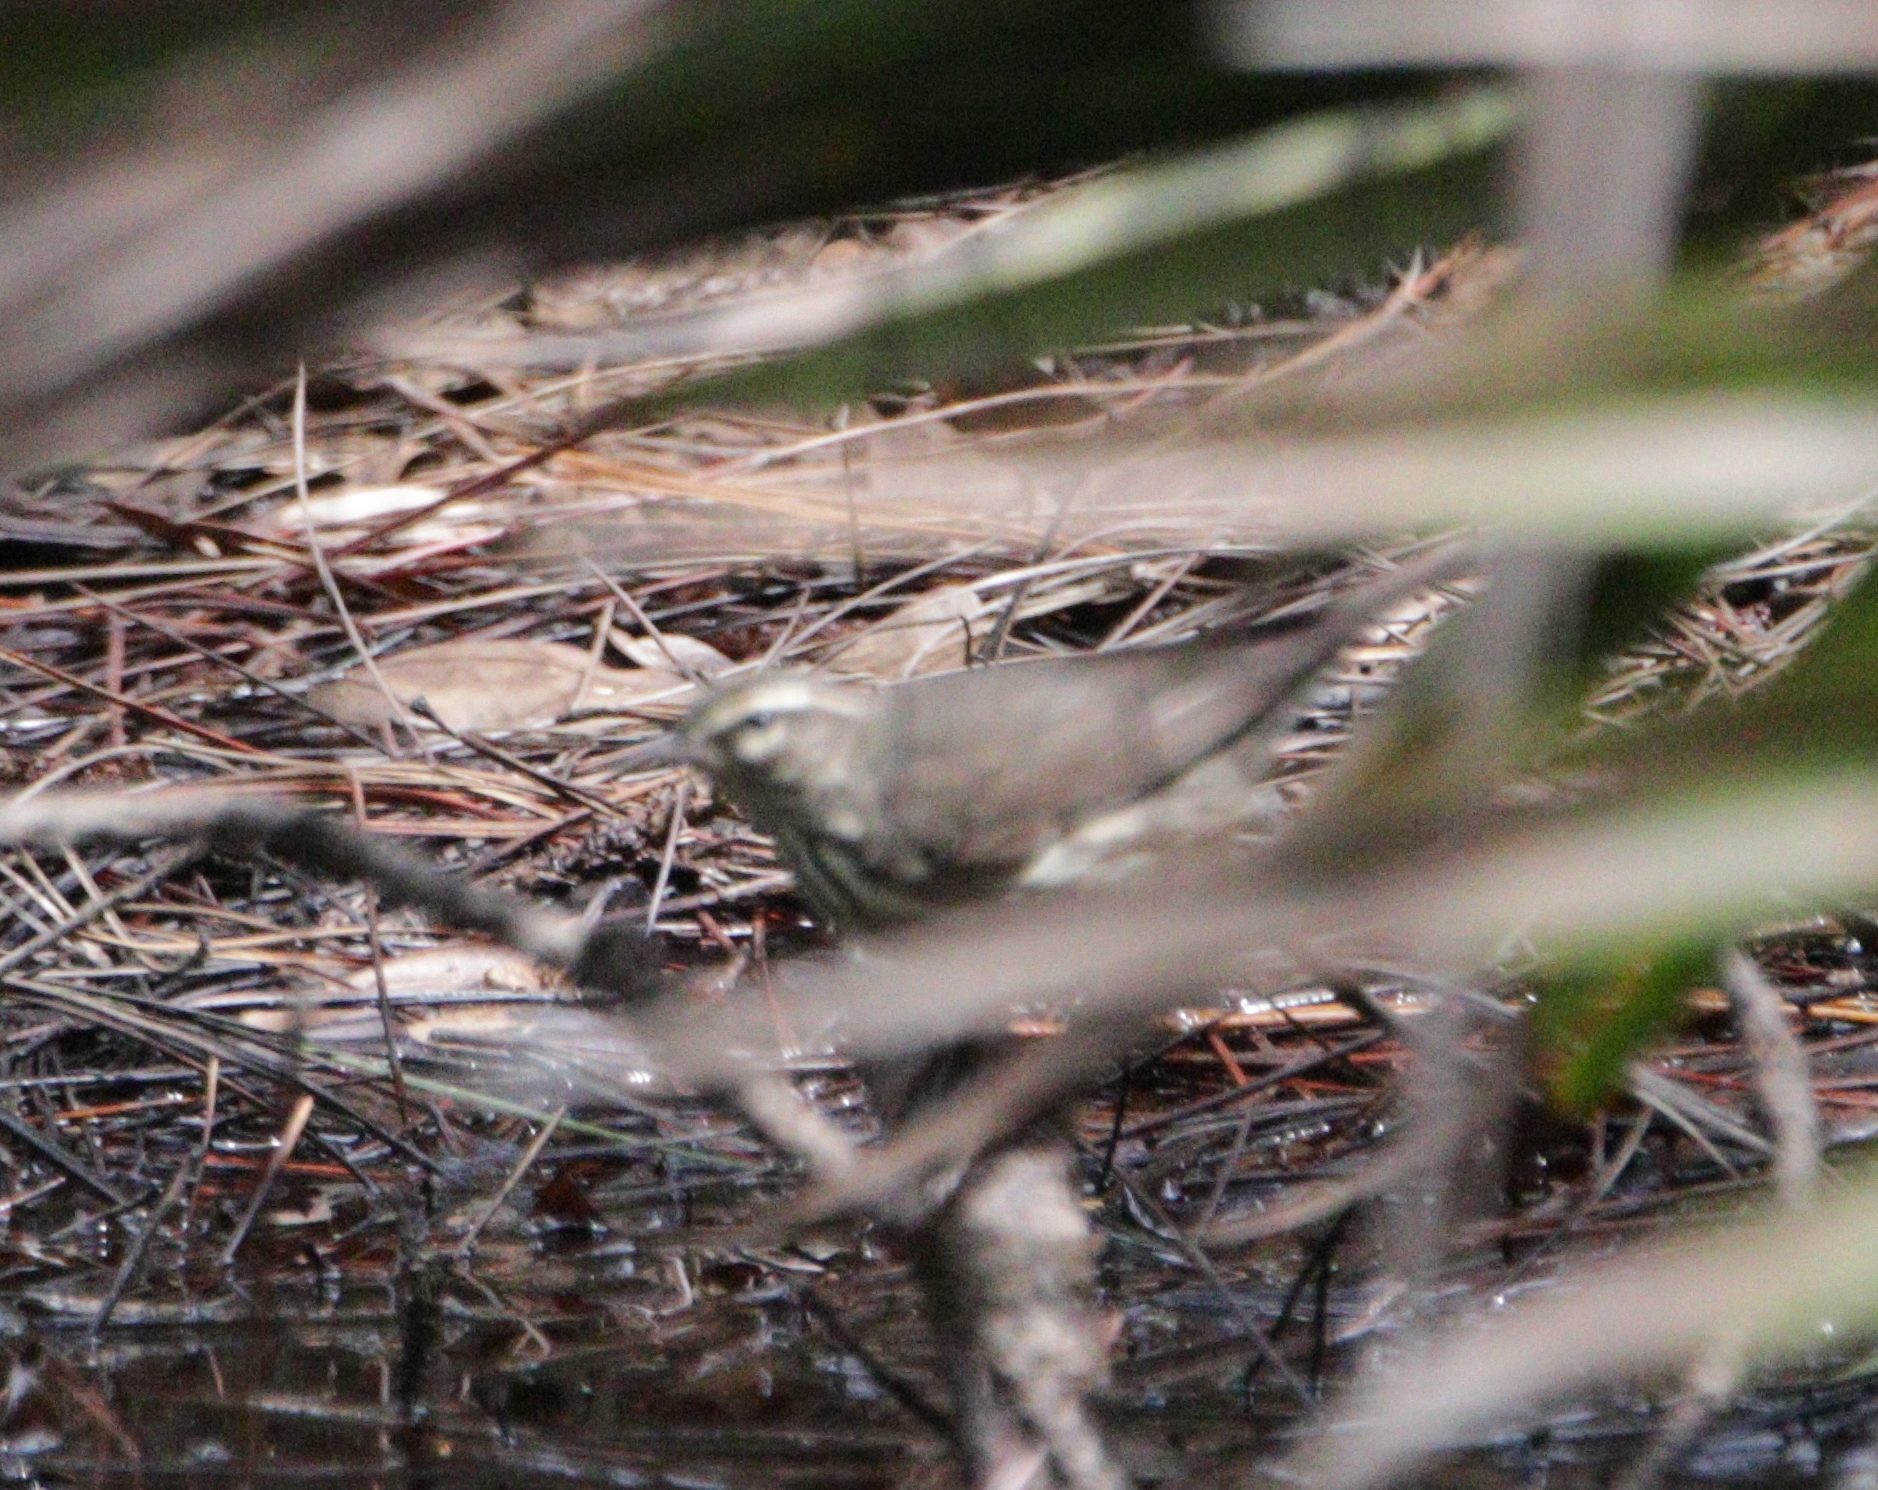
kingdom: Animalia
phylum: Chordata
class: Aves
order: Passeriformes
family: Parulidae
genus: Parkesia
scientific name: Parkesia noveboracensis
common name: Northern waterthrush
